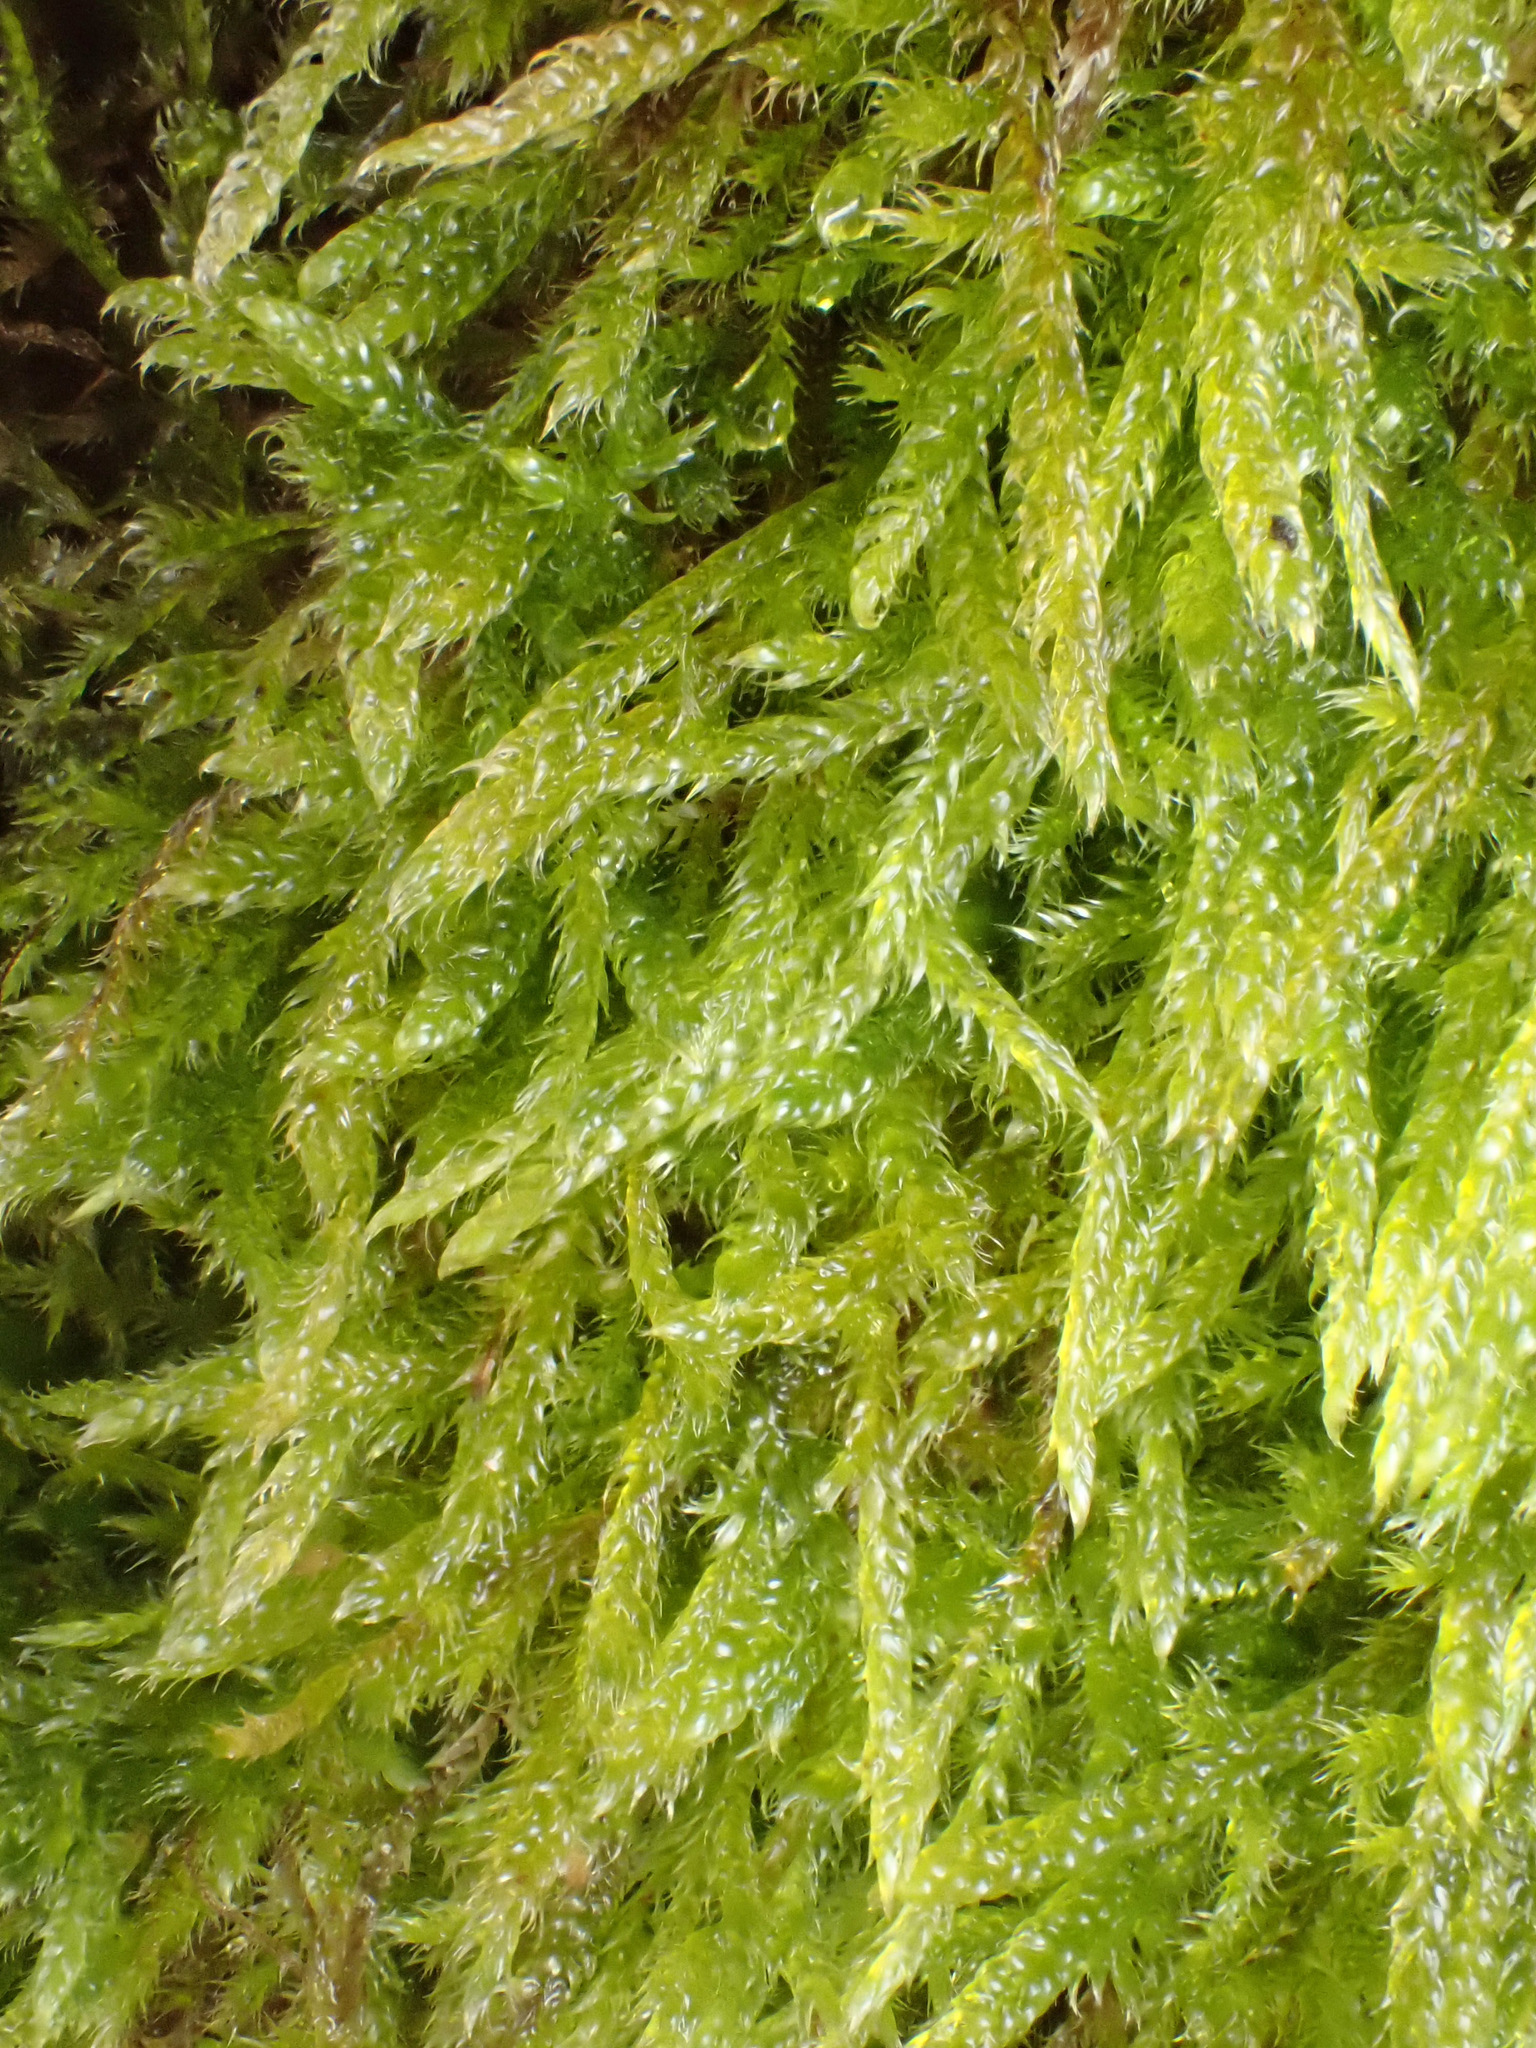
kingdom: Plantae
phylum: Bryophyta
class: Bryopsida
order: Hypnales
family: Hypnaceae
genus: Hypnum
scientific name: Hypnum cupressiforme
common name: Cypress-leaved plait-moss
